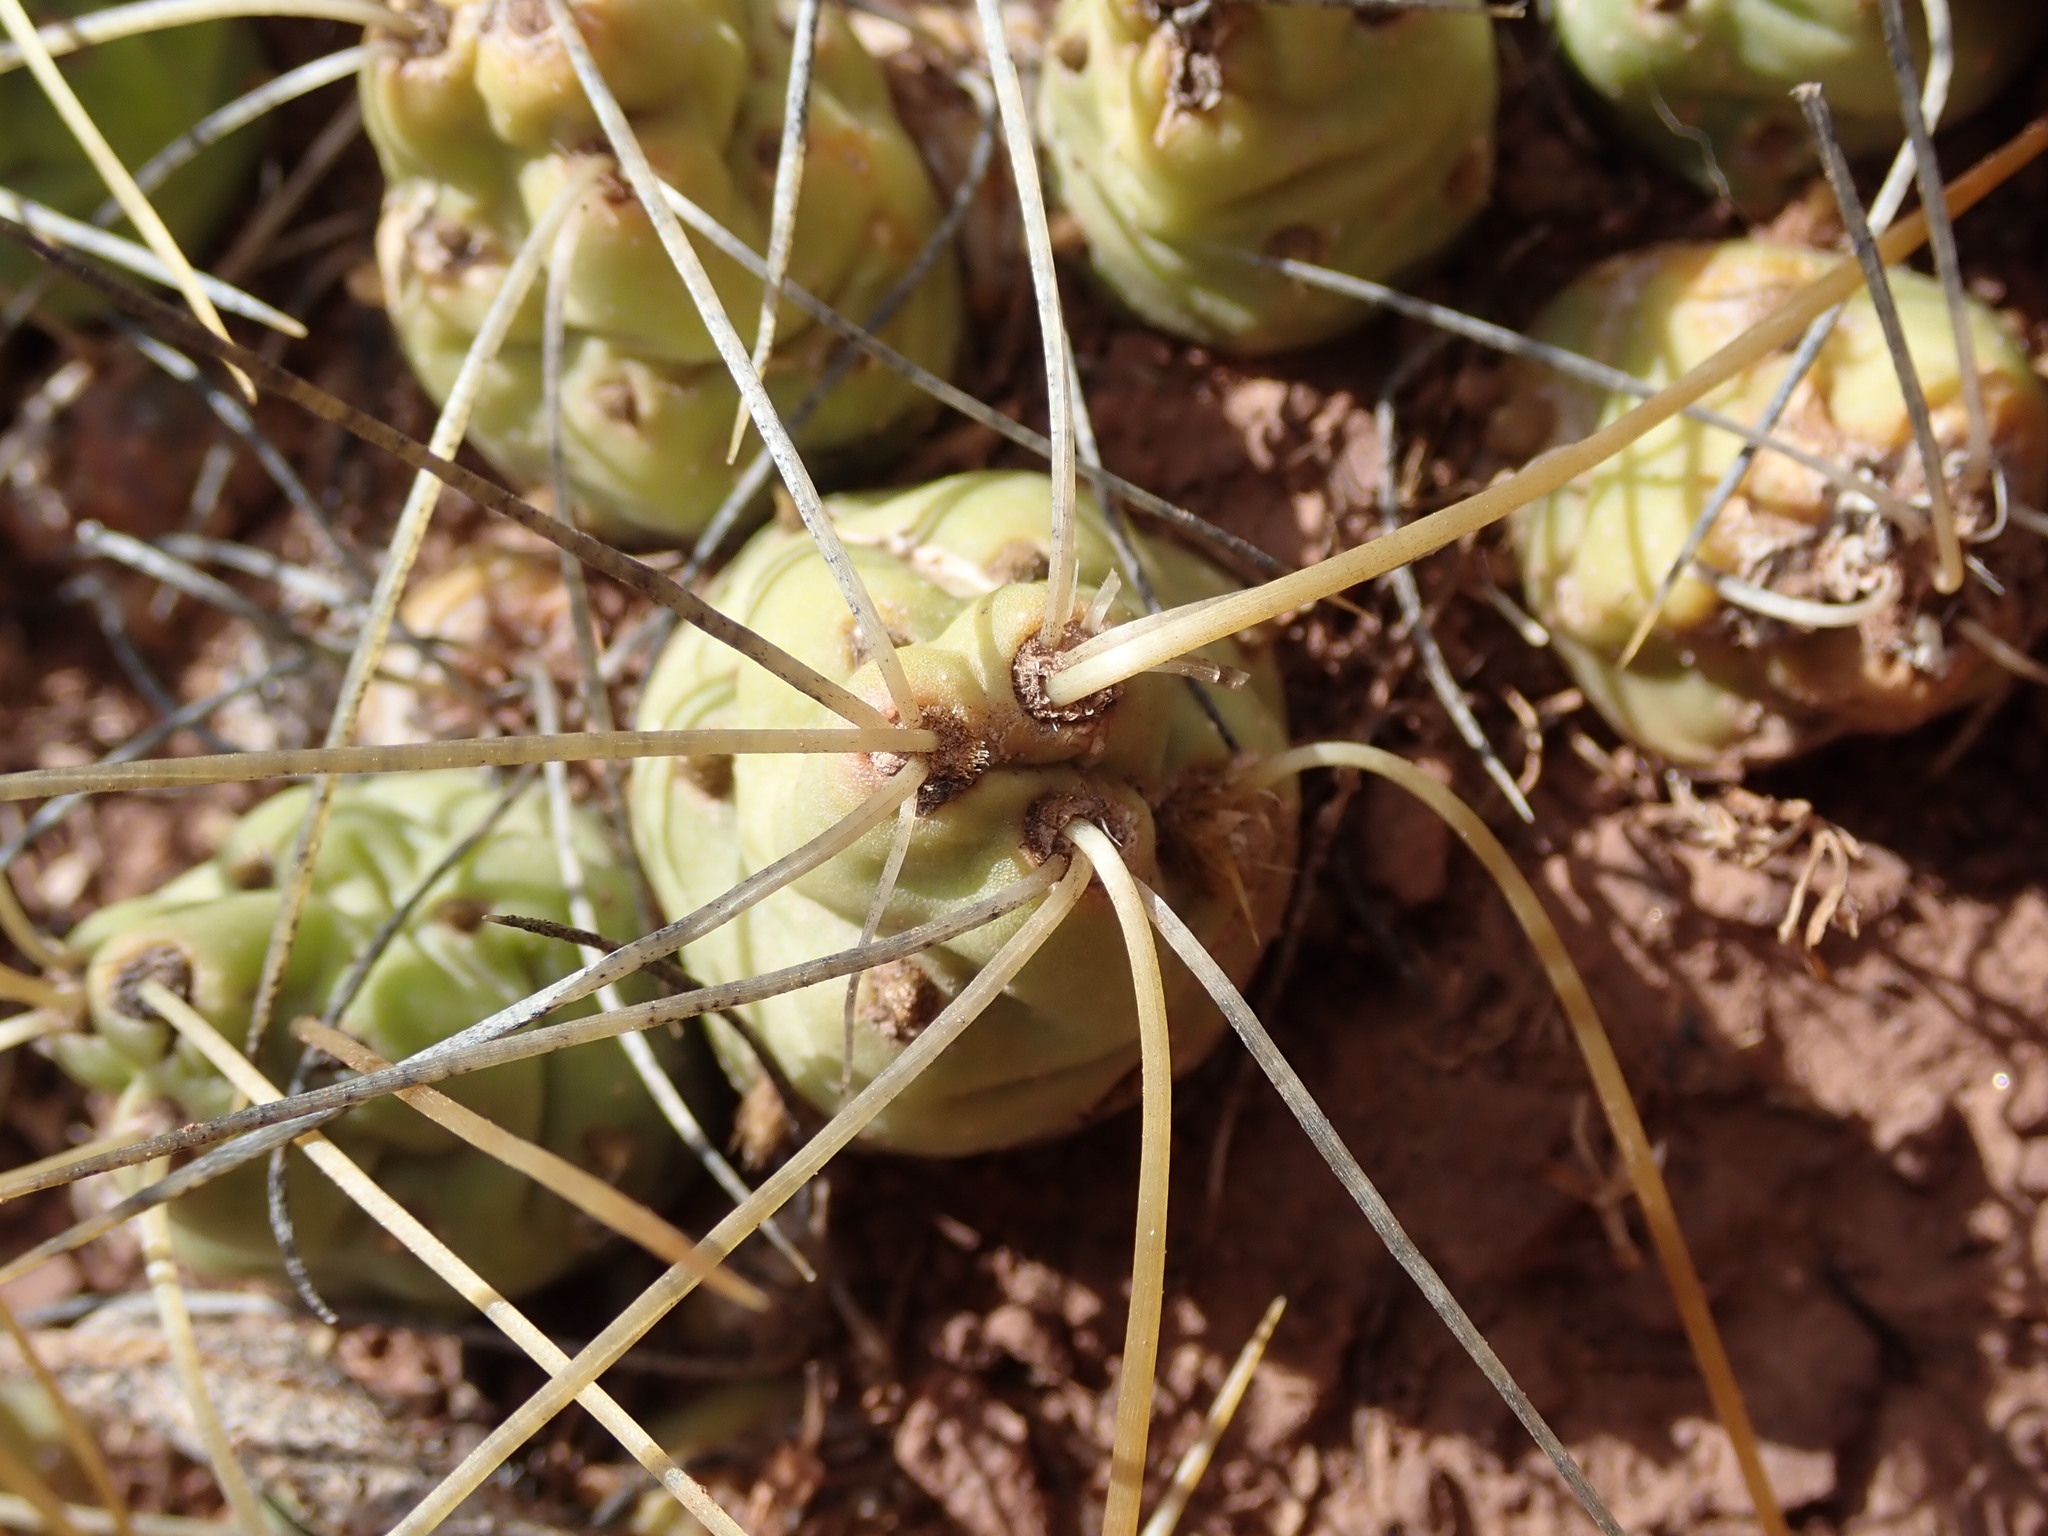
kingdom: Plantae
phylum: Tracheophyta
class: Magnoliopsida
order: Caryophyllales
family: Cactaceae
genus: Cumulopuntia
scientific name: Cumulopuntia boliviana
